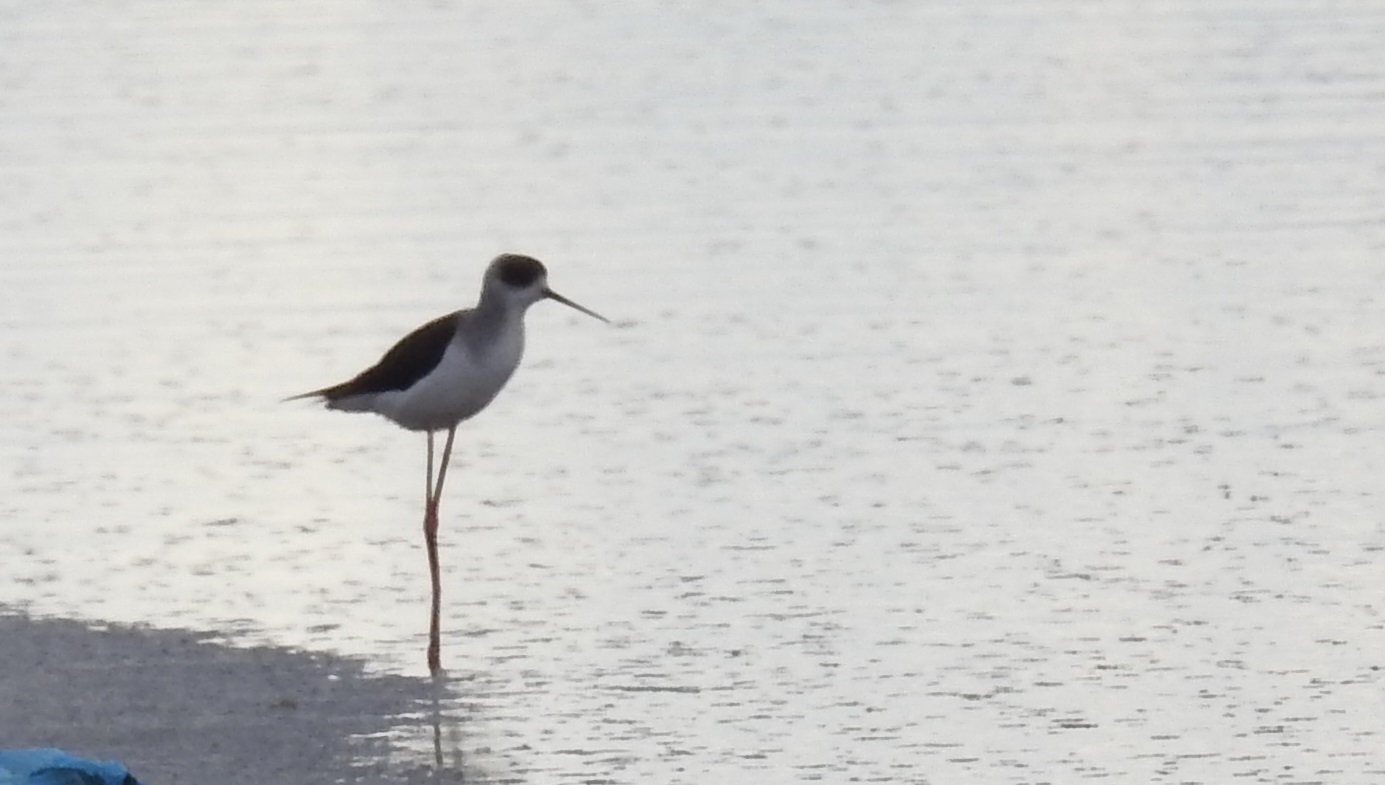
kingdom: Animalia
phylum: Chordata
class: Aves
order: Charadriiformes
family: Recurvirostridae
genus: Himantopus
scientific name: Himantopus himantopus
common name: Black-winged stilt
